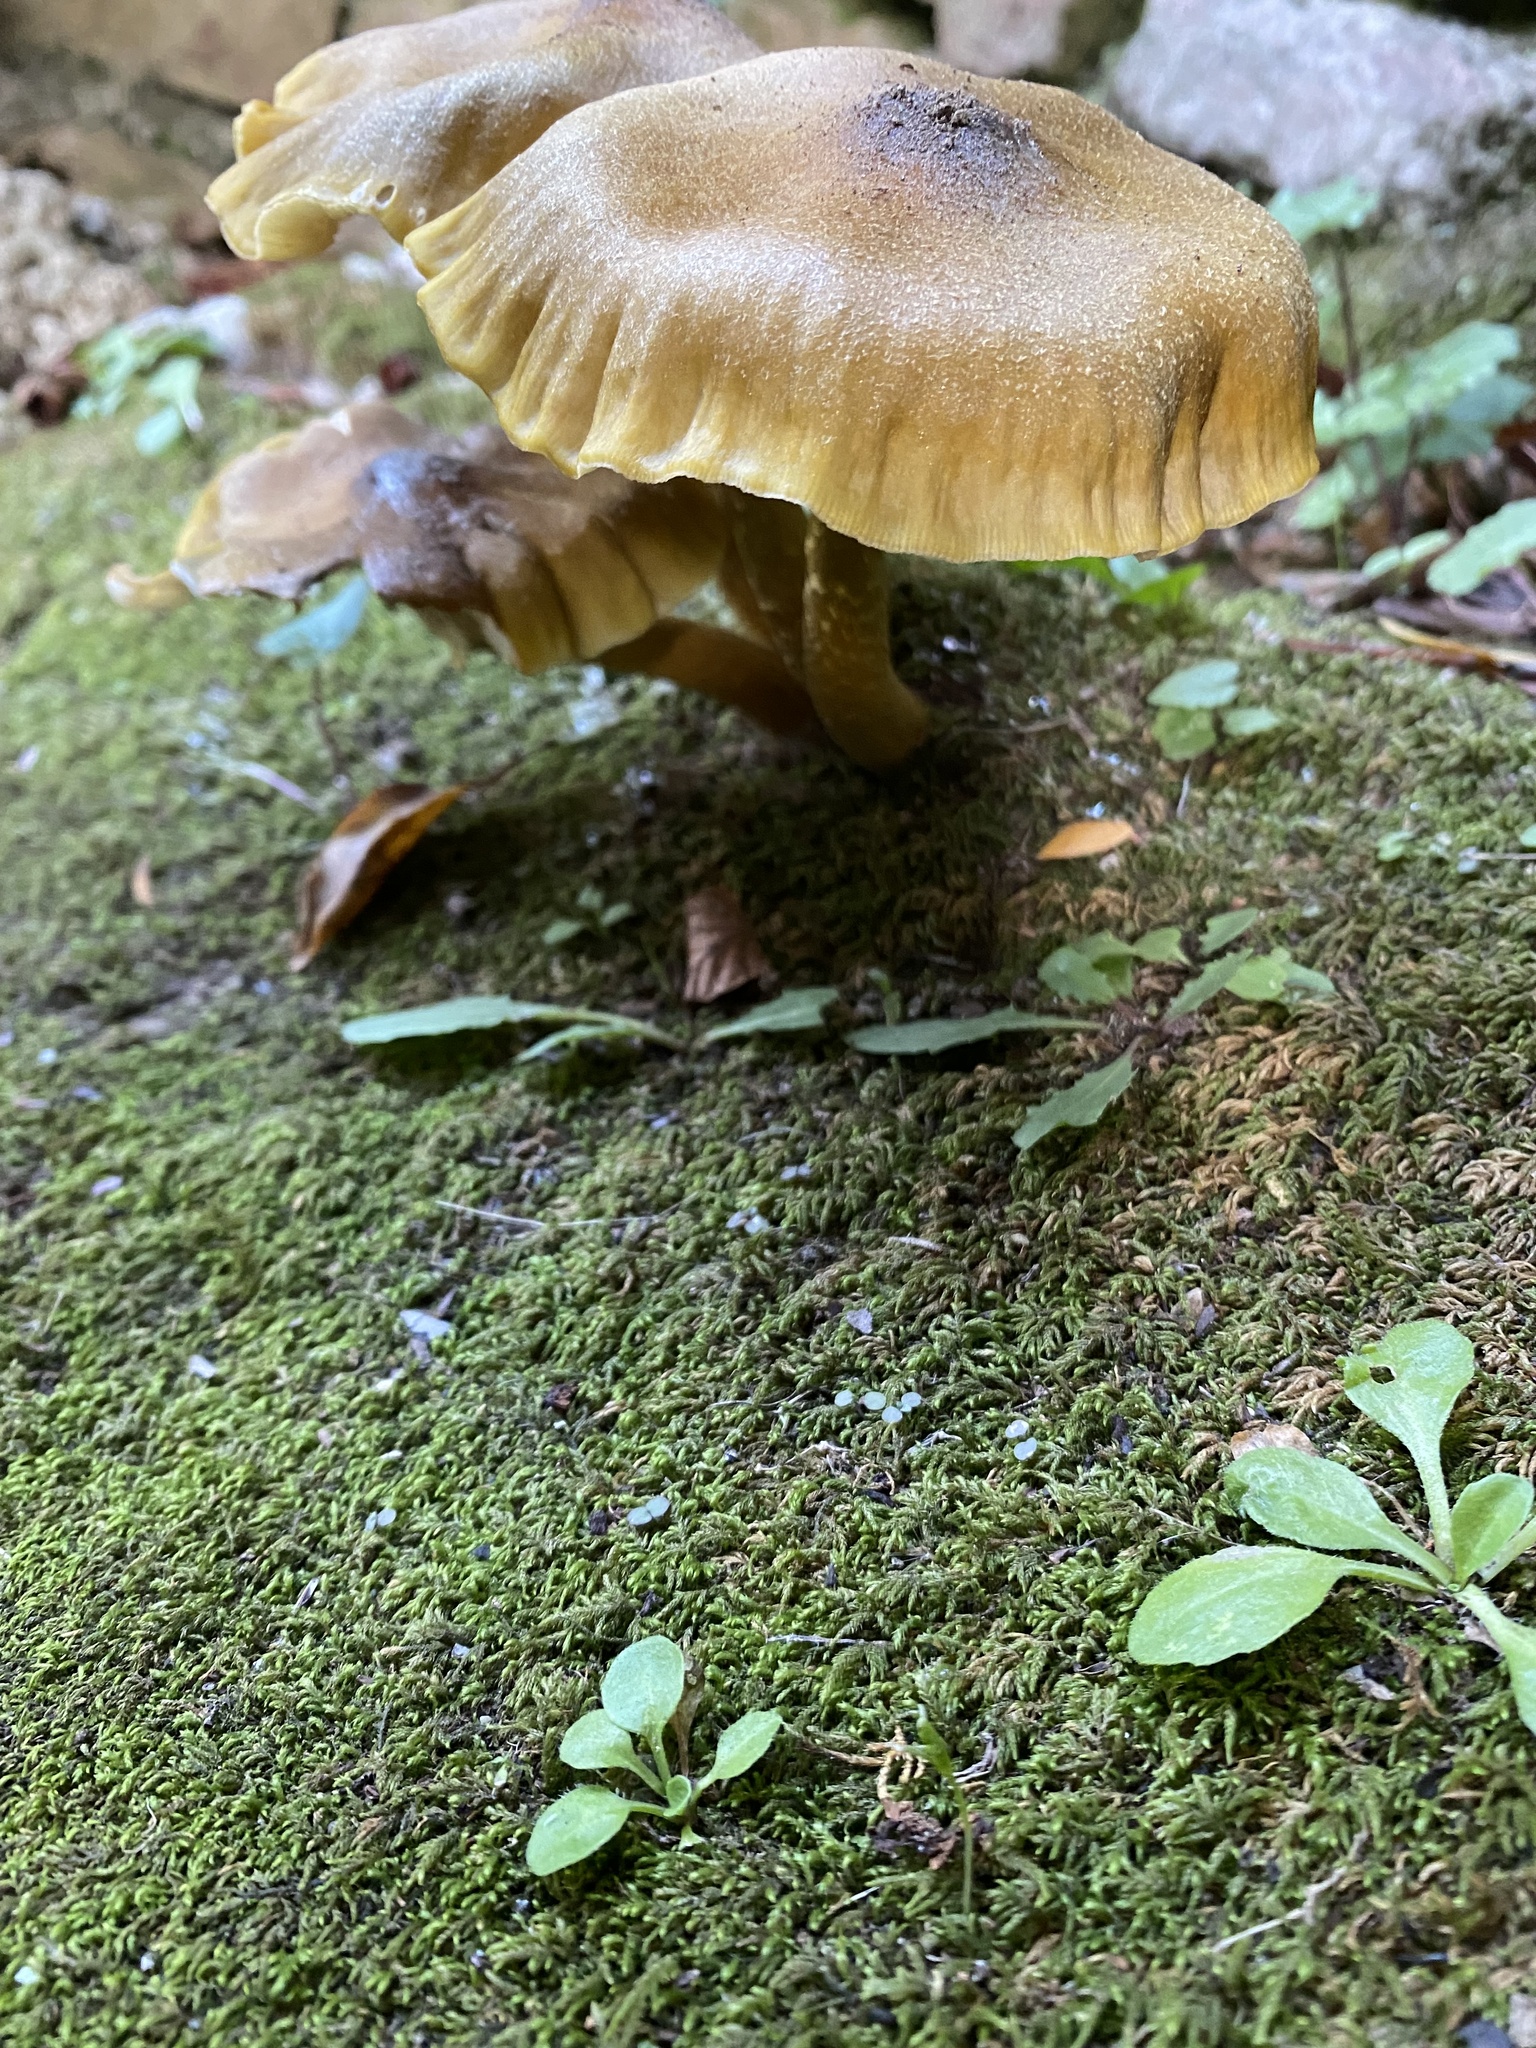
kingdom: Fungi
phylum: Basidiomycota
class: Agaricomycetes
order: Agaricales
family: Physalacriaceae
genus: Armillaria
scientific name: Armillaria mellea
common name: Honey fungus
